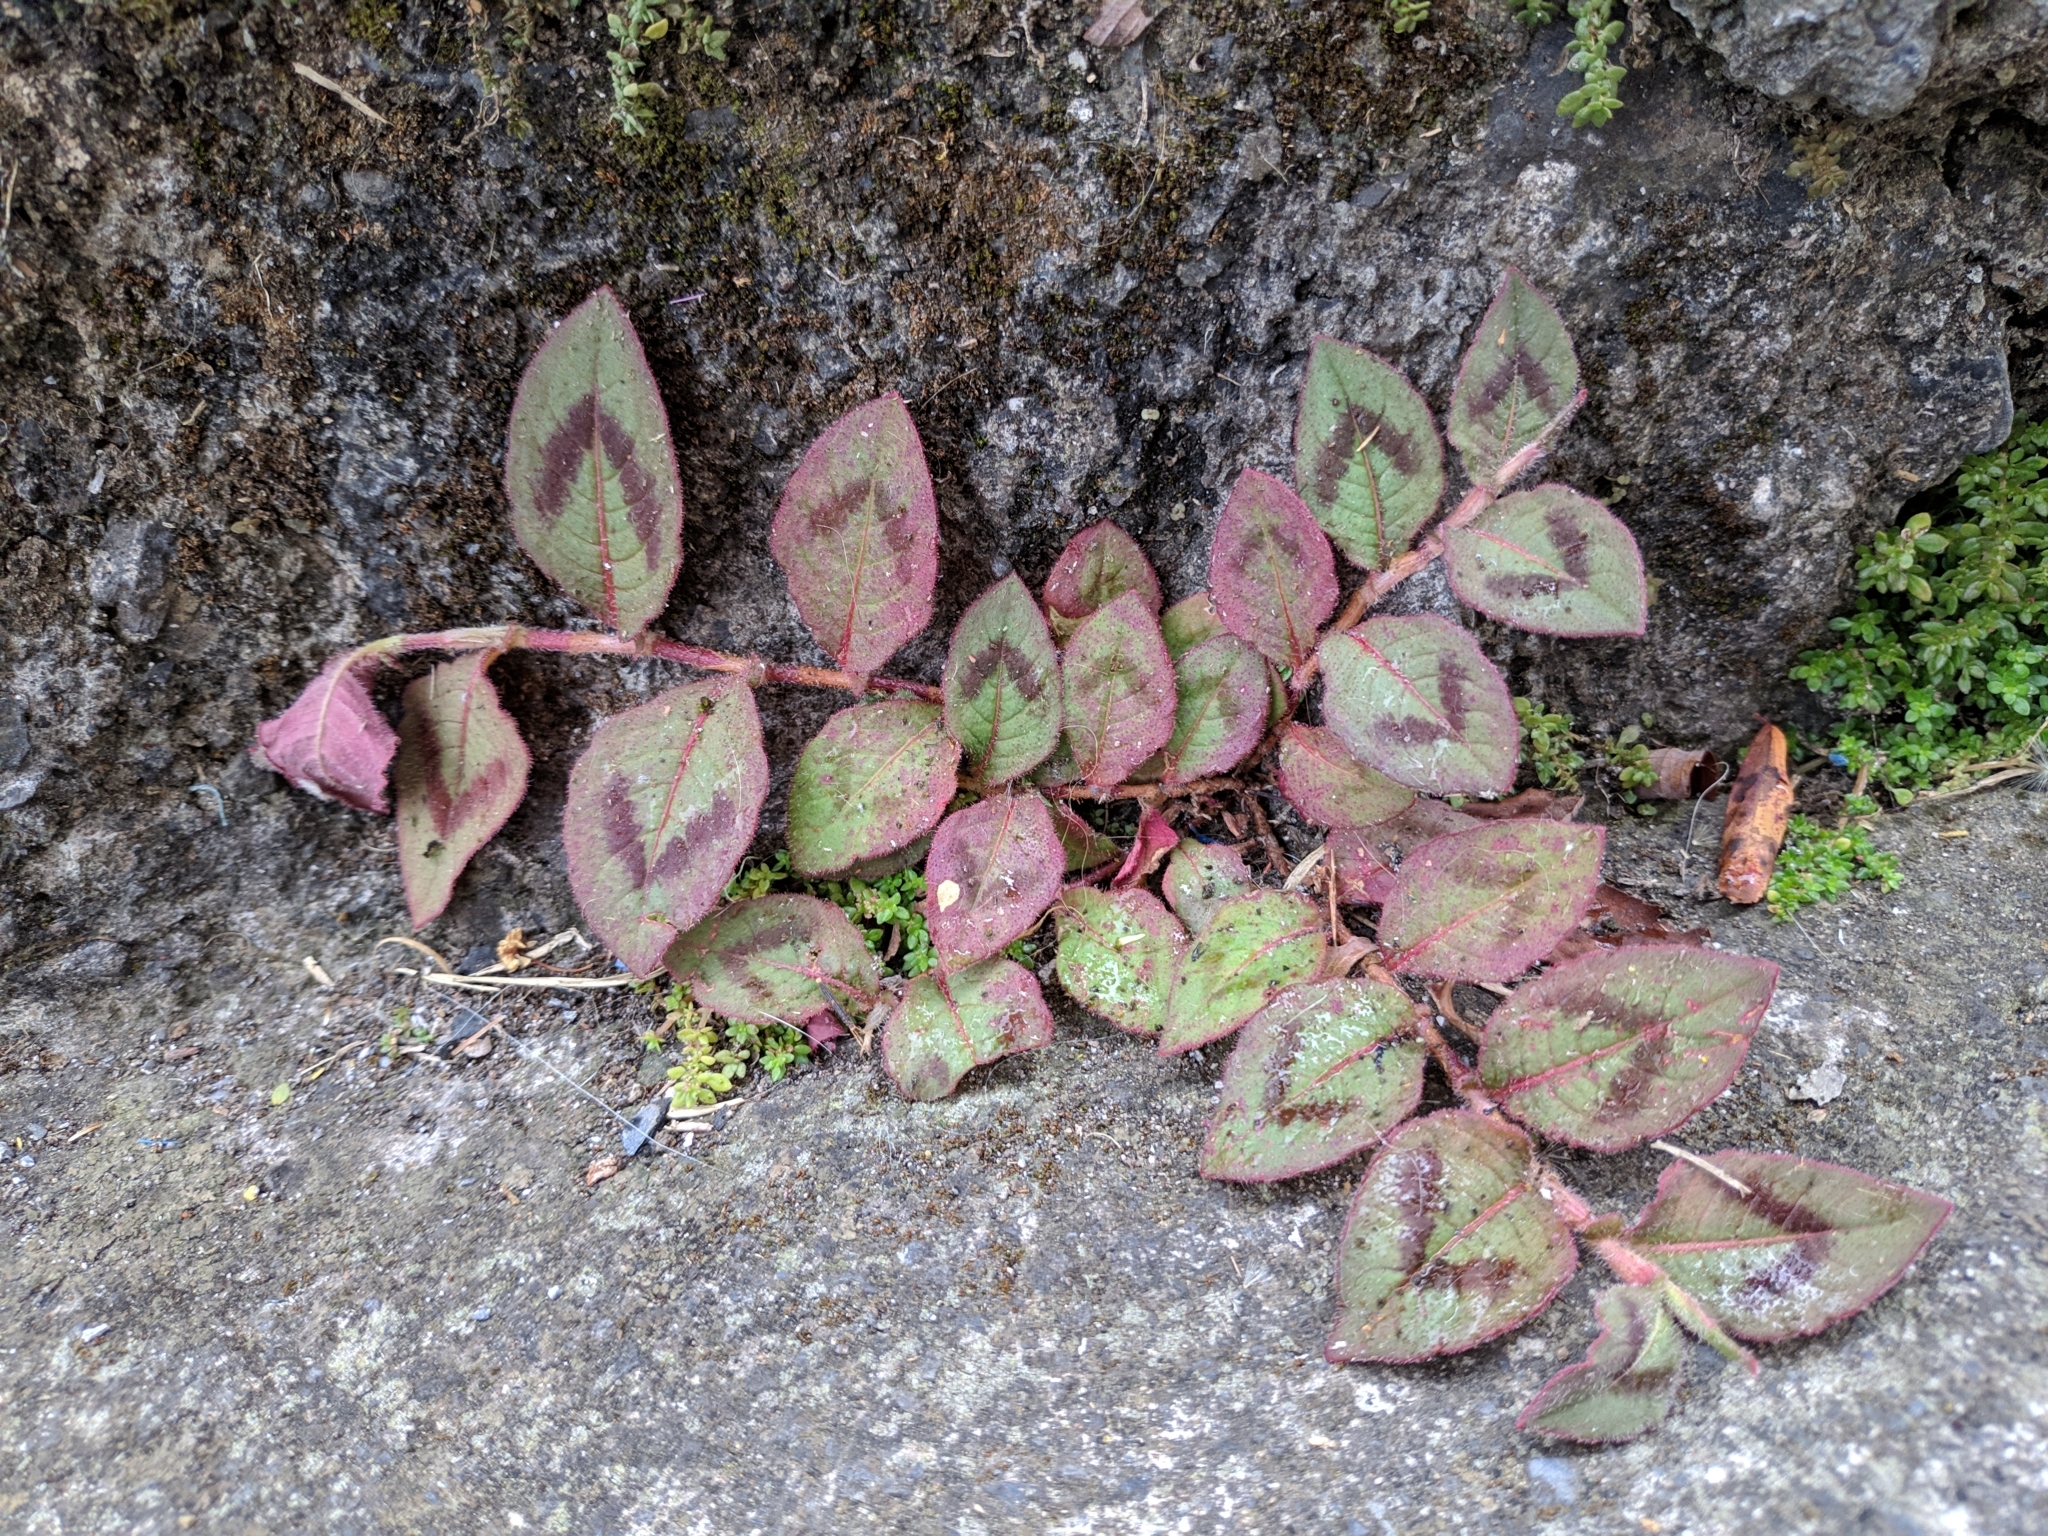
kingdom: Plantae
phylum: Tracheophyta
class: Magnoliopsida
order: Caryophyllales
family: Polygonaceae
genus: Persicaria
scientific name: Persicaria capitata
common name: Pinkhead smartweed
